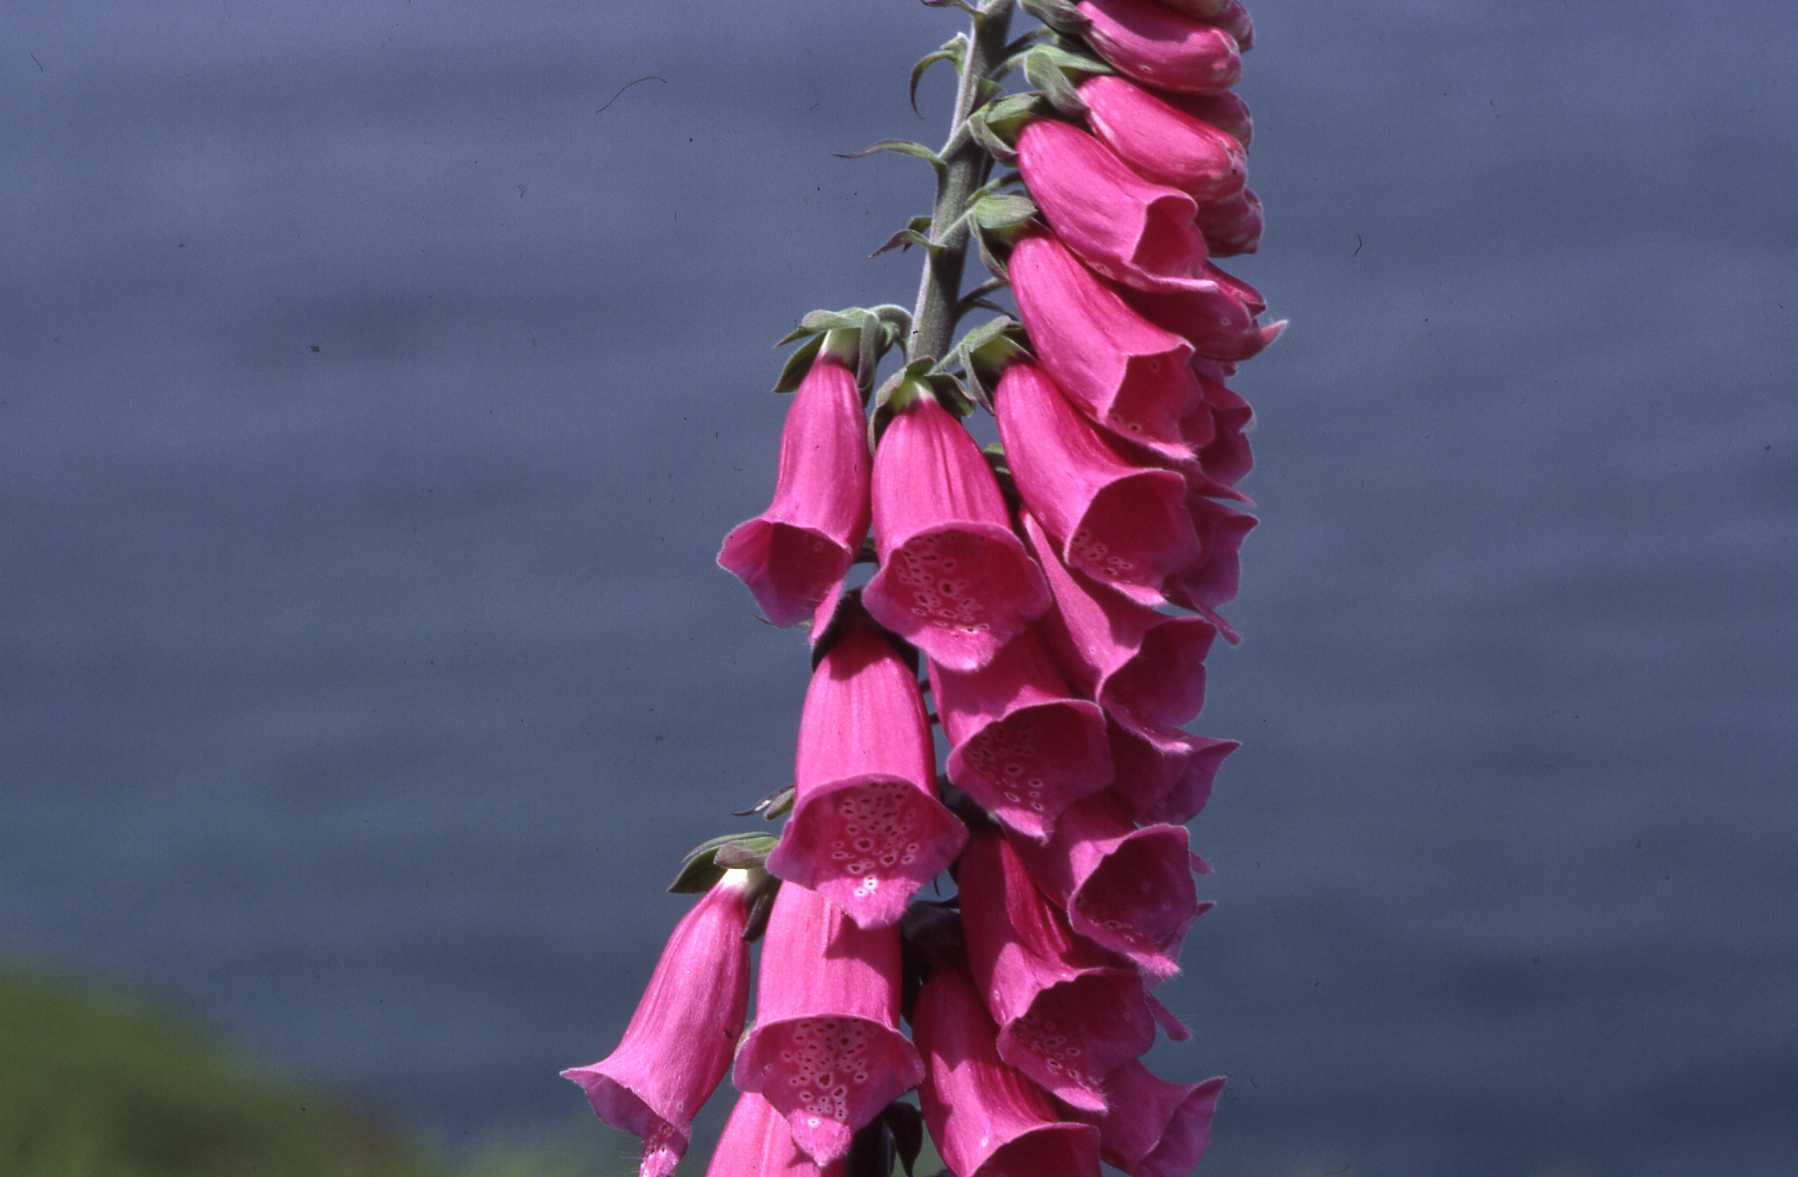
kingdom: Plantae
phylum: Tracheophyta
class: Magnoliopsida
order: Lamiales
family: Plantaginaceae
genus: Digitalis
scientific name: Digitalis purpurea
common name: Foxglove
